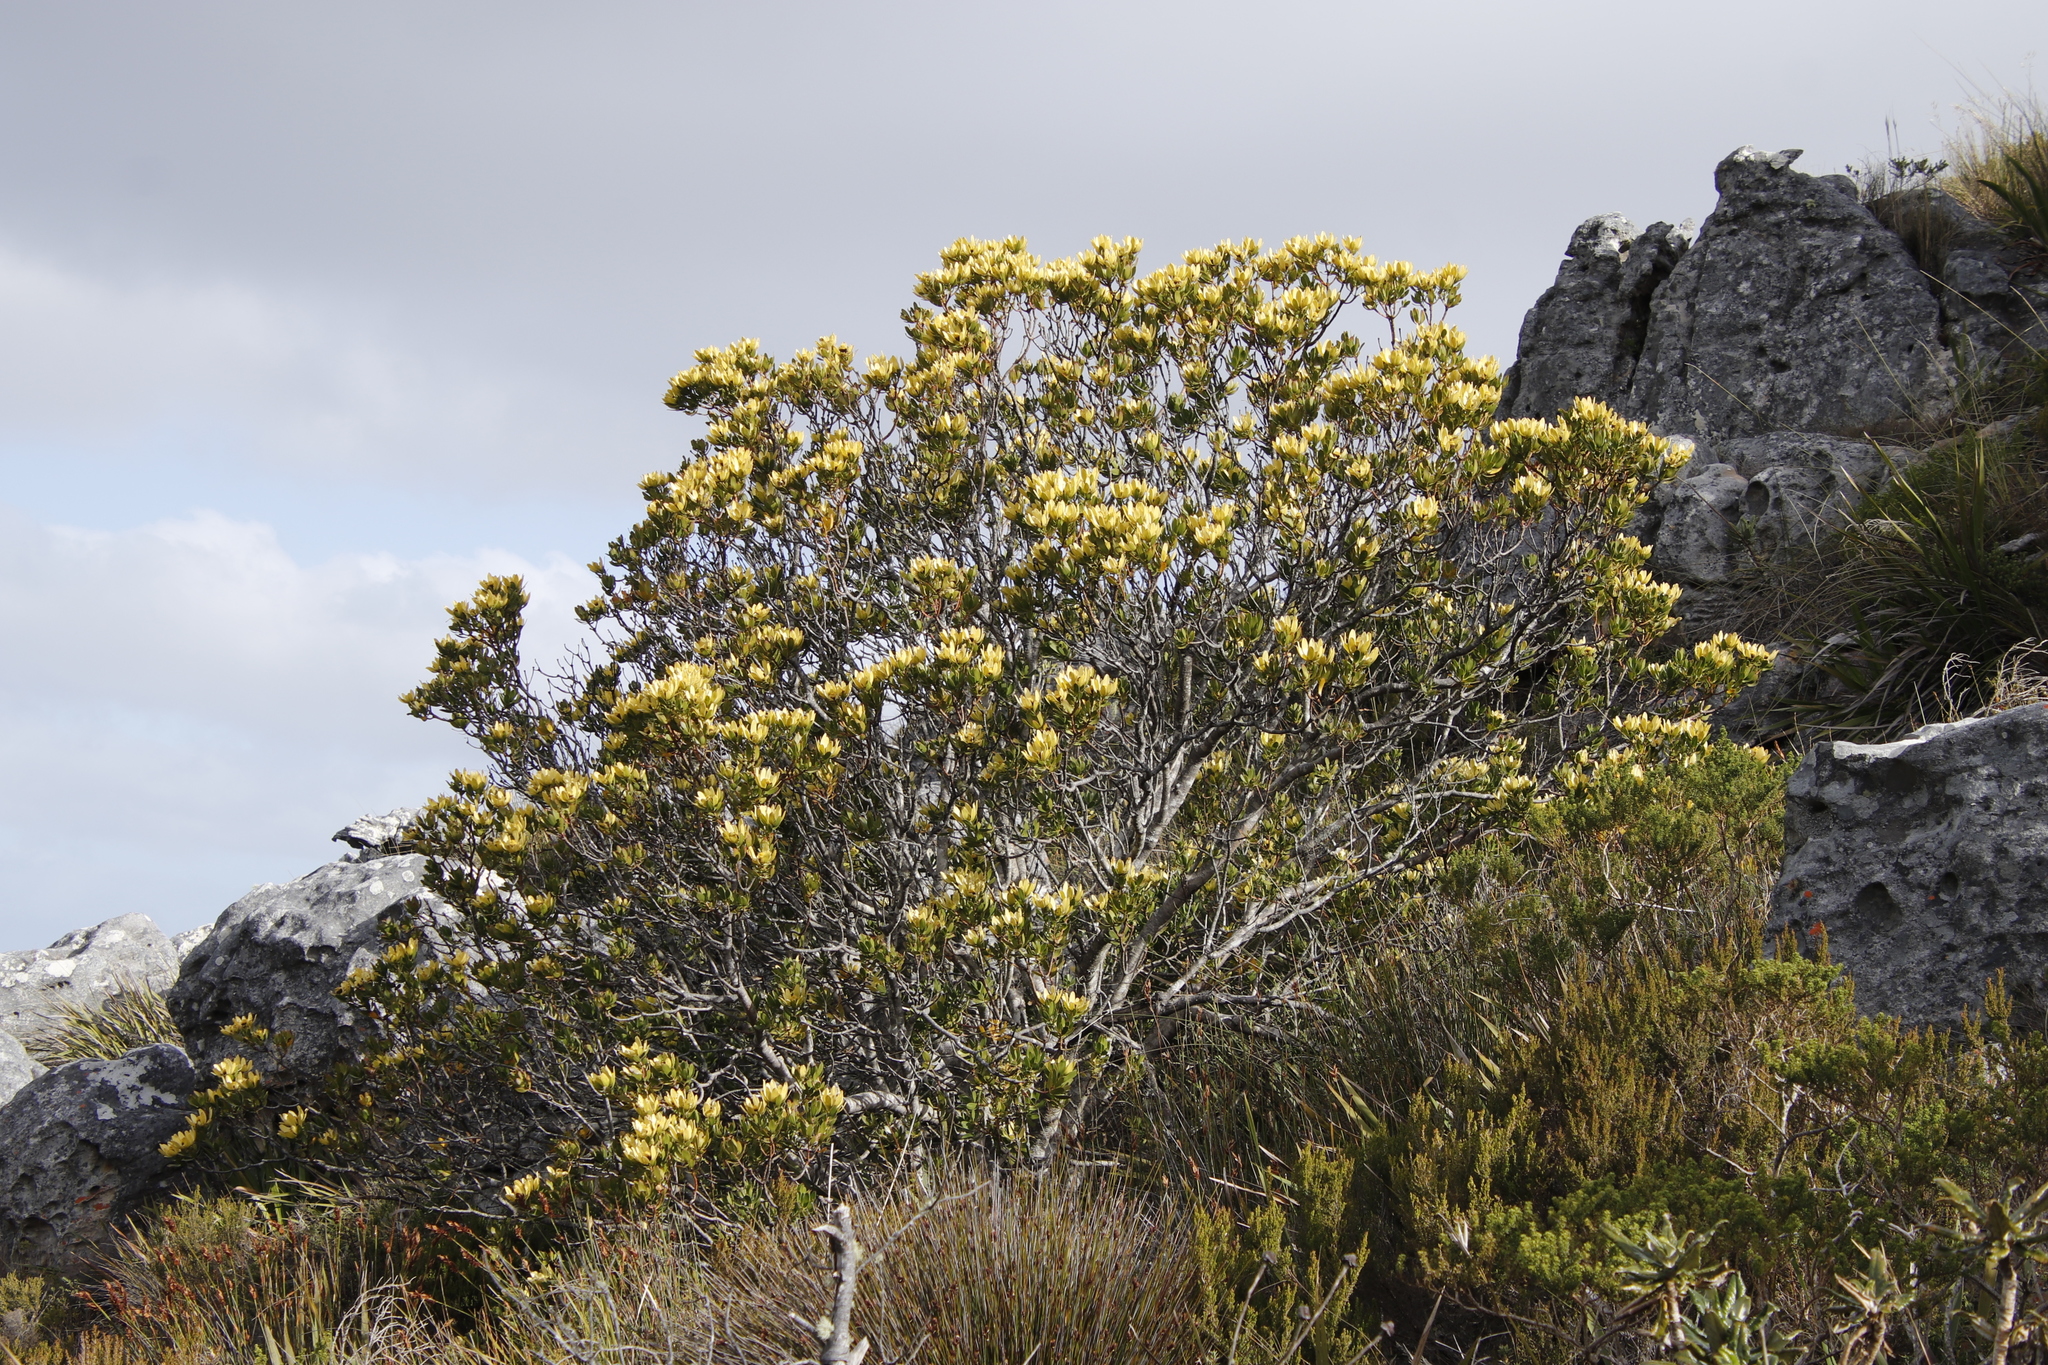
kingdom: Plantae
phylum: Tracheophyta
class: Magnoliopsida
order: Proteales
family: Proteaceae
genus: Leucadendron
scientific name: Leucadendron strobilinum
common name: Mountain rose
